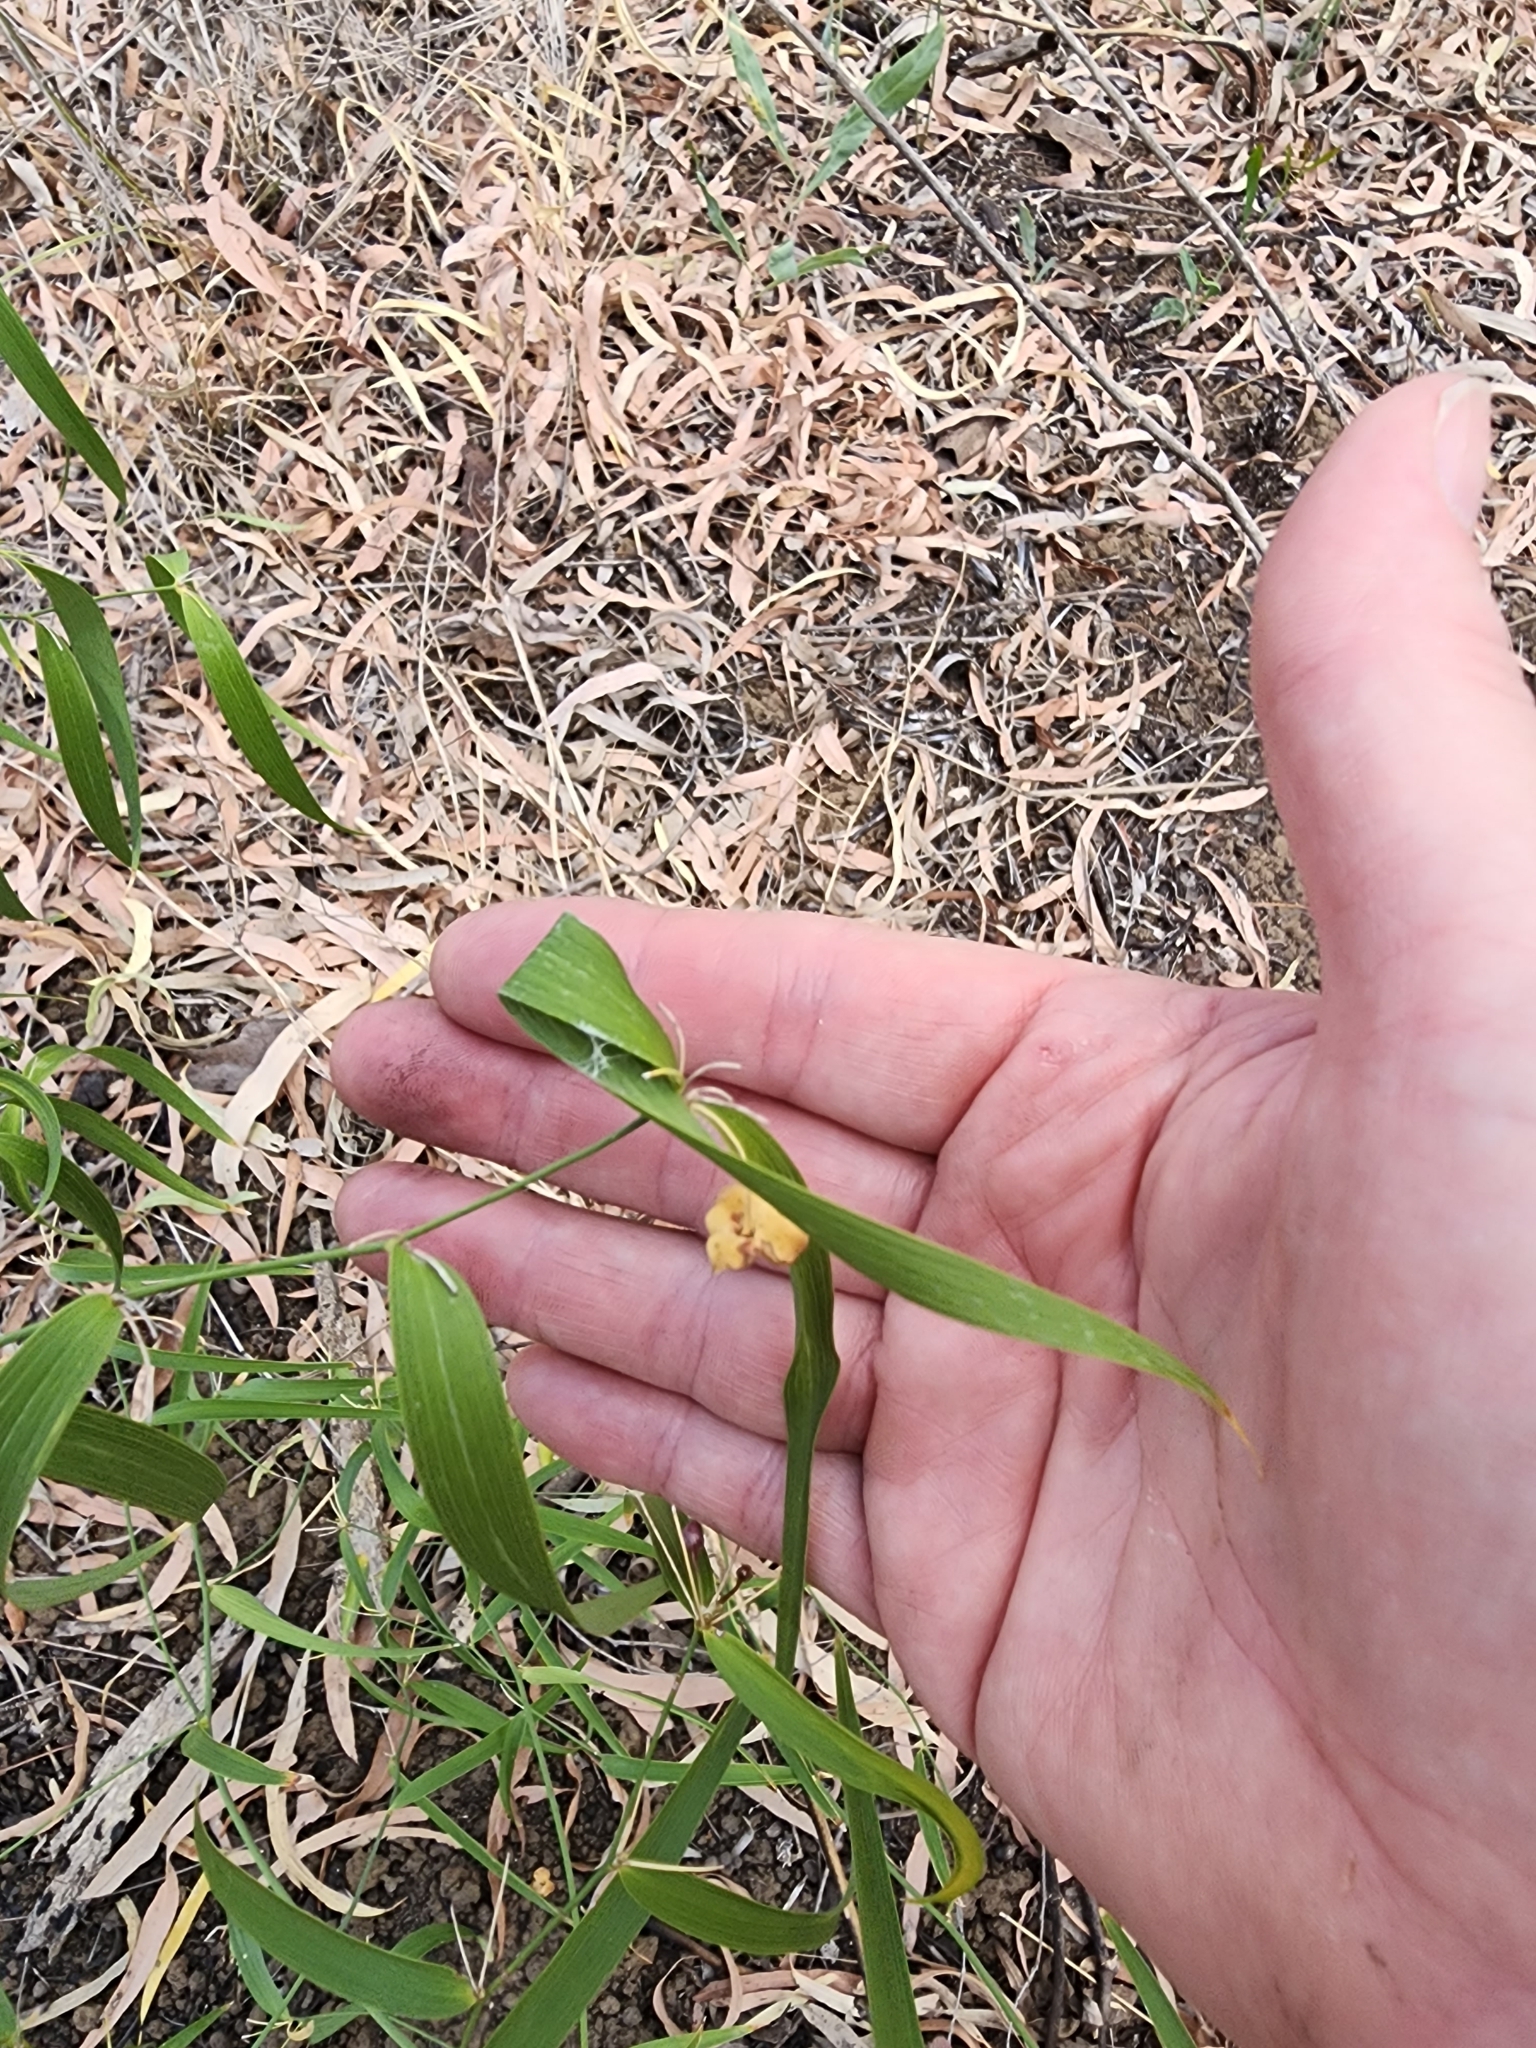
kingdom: Plantae
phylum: Tracheophyta
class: Liliopsida
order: Asparagales
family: Asparagaceae
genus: Eustrephus
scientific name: Eustrephus latifolius
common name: Orangevine
